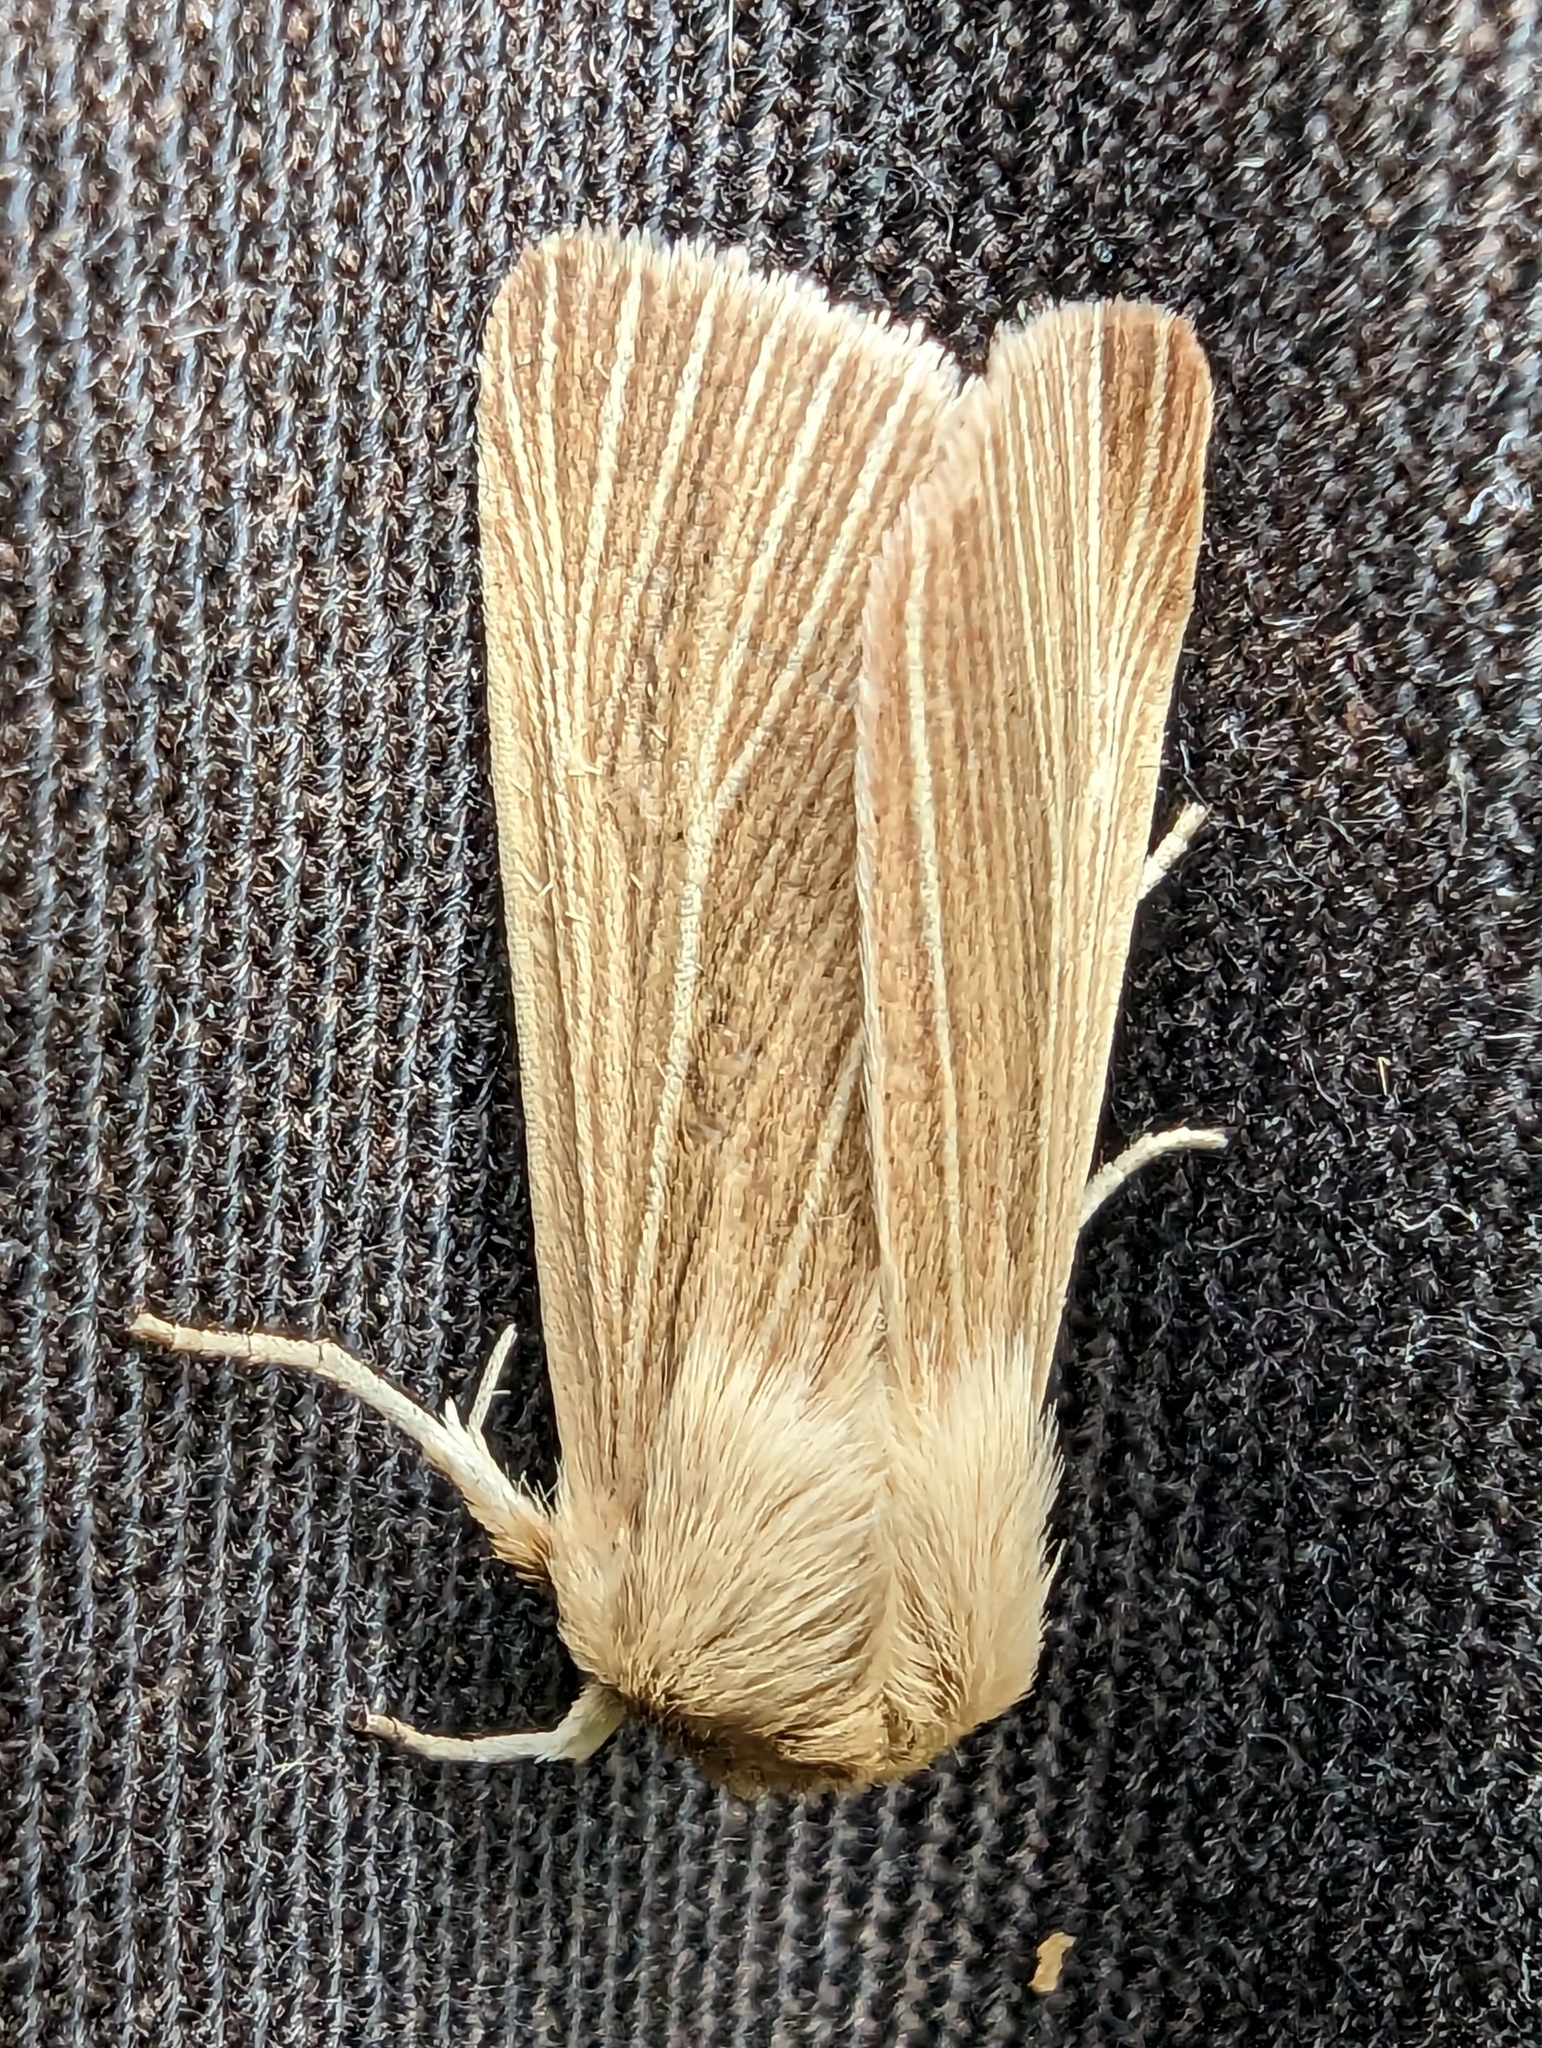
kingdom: Animalia
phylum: Arthropoda
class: Insecta
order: Lepidoptera
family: Noctuidae
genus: Mythimna
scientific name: Mythimna pallens
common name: Common wainscot
